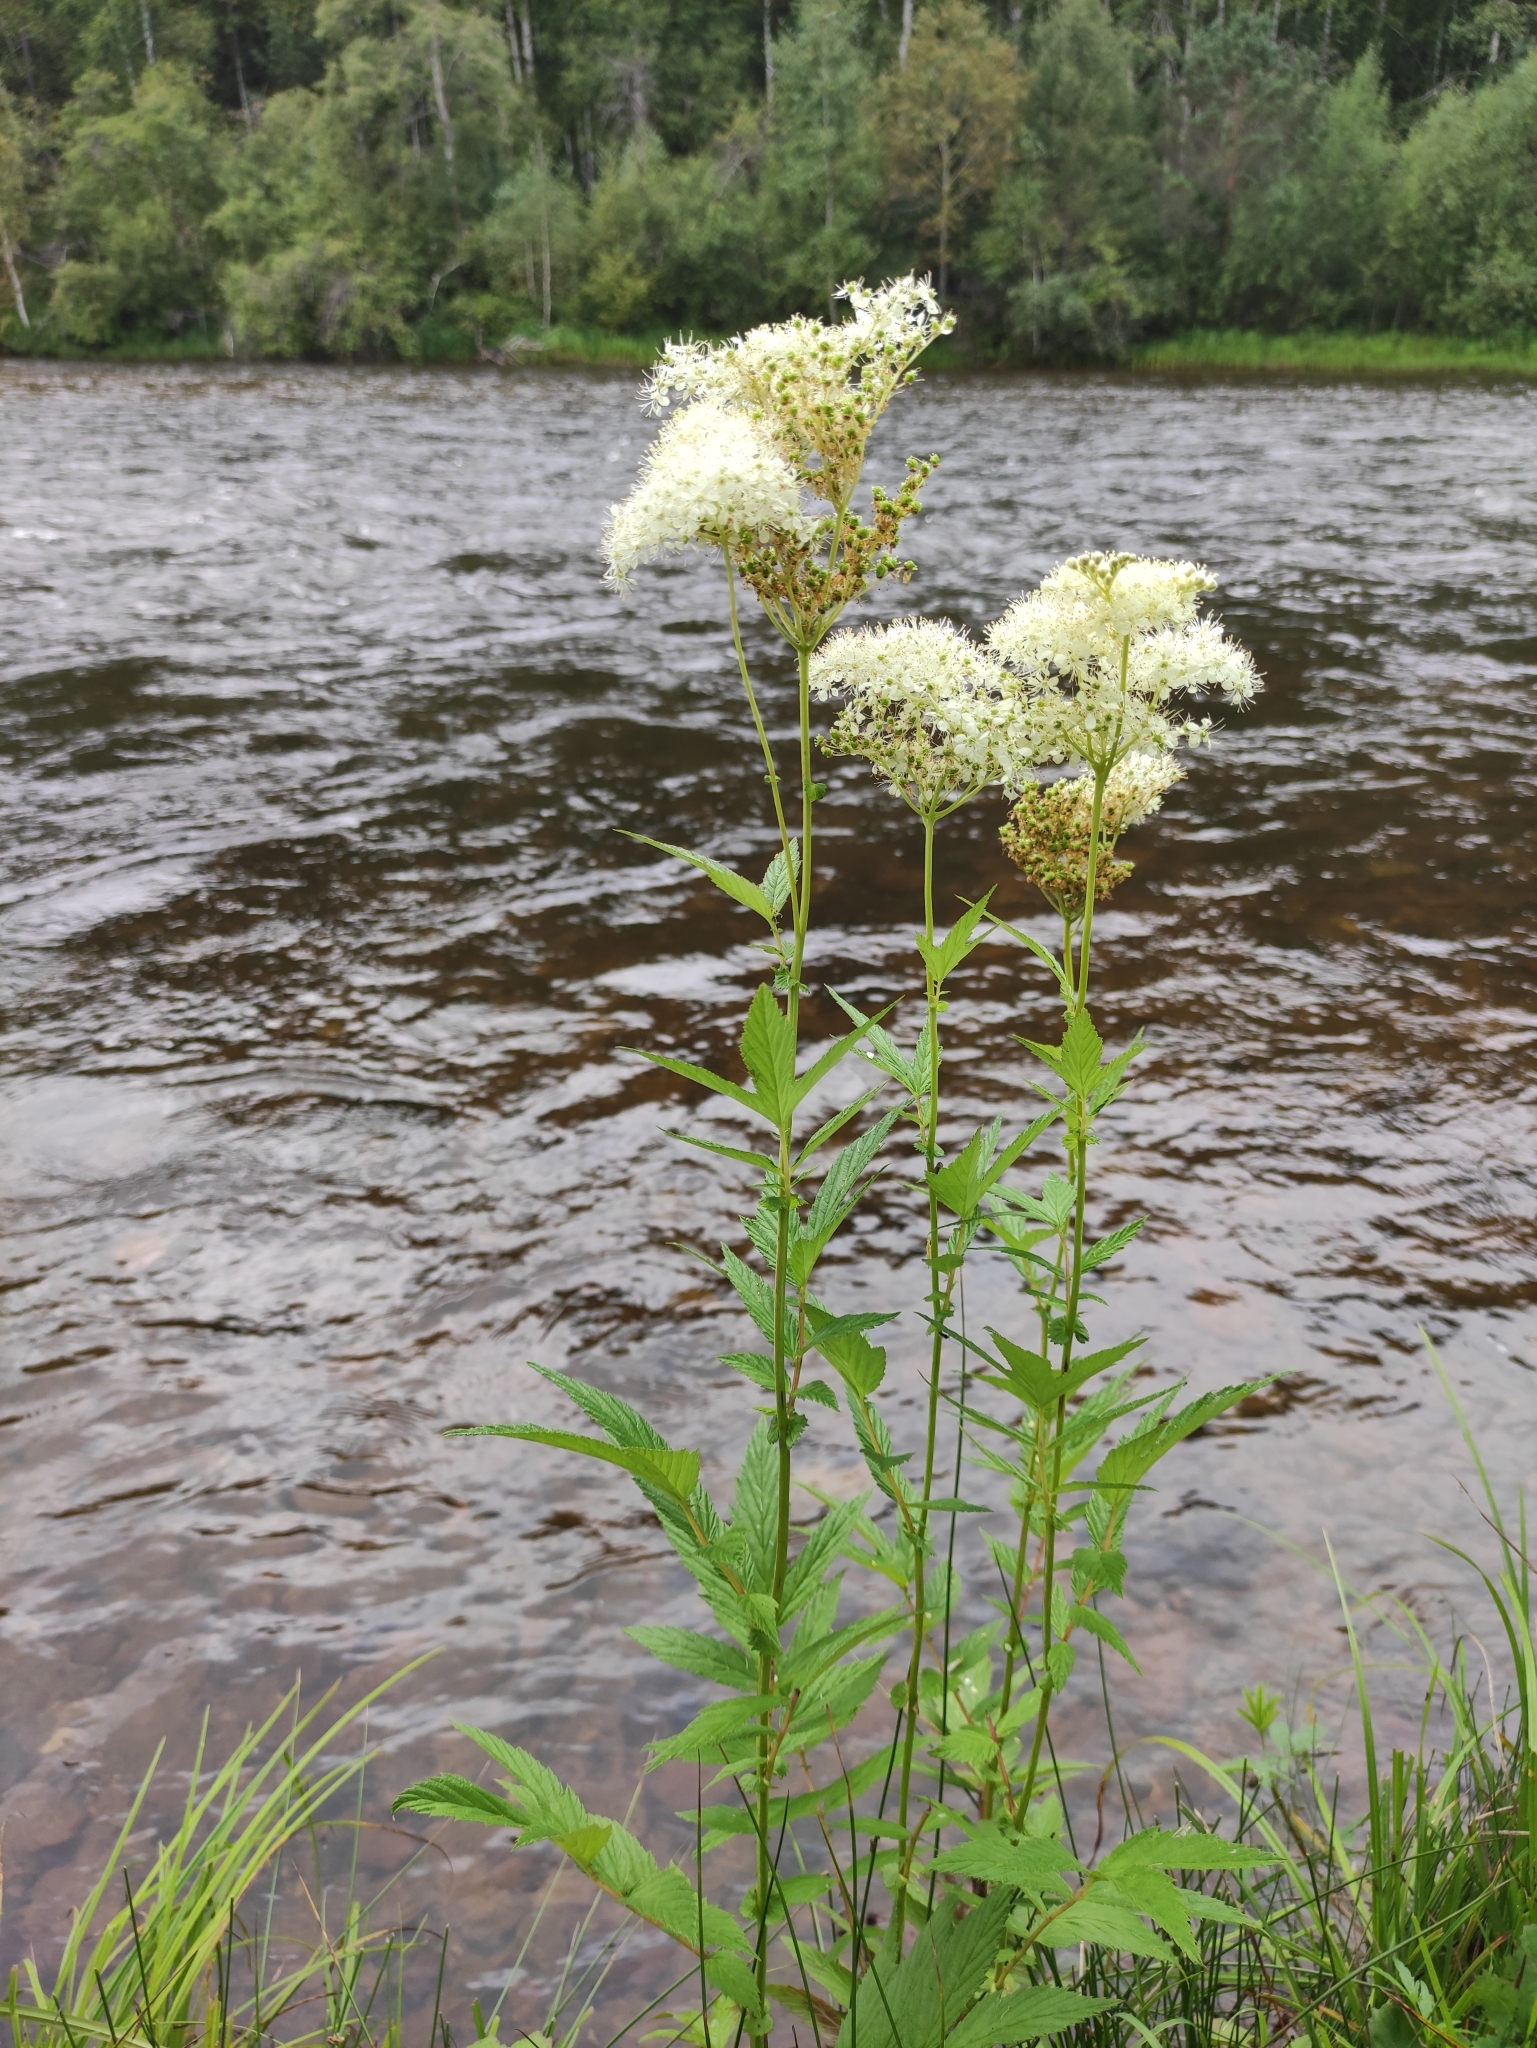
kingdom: Plantae
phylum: Tracheophyta
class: Magnoliopsida
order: Rosales
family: Rosaceae
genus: Filipendula
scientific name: Filipendula ulmaria
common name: Meadowsweet
